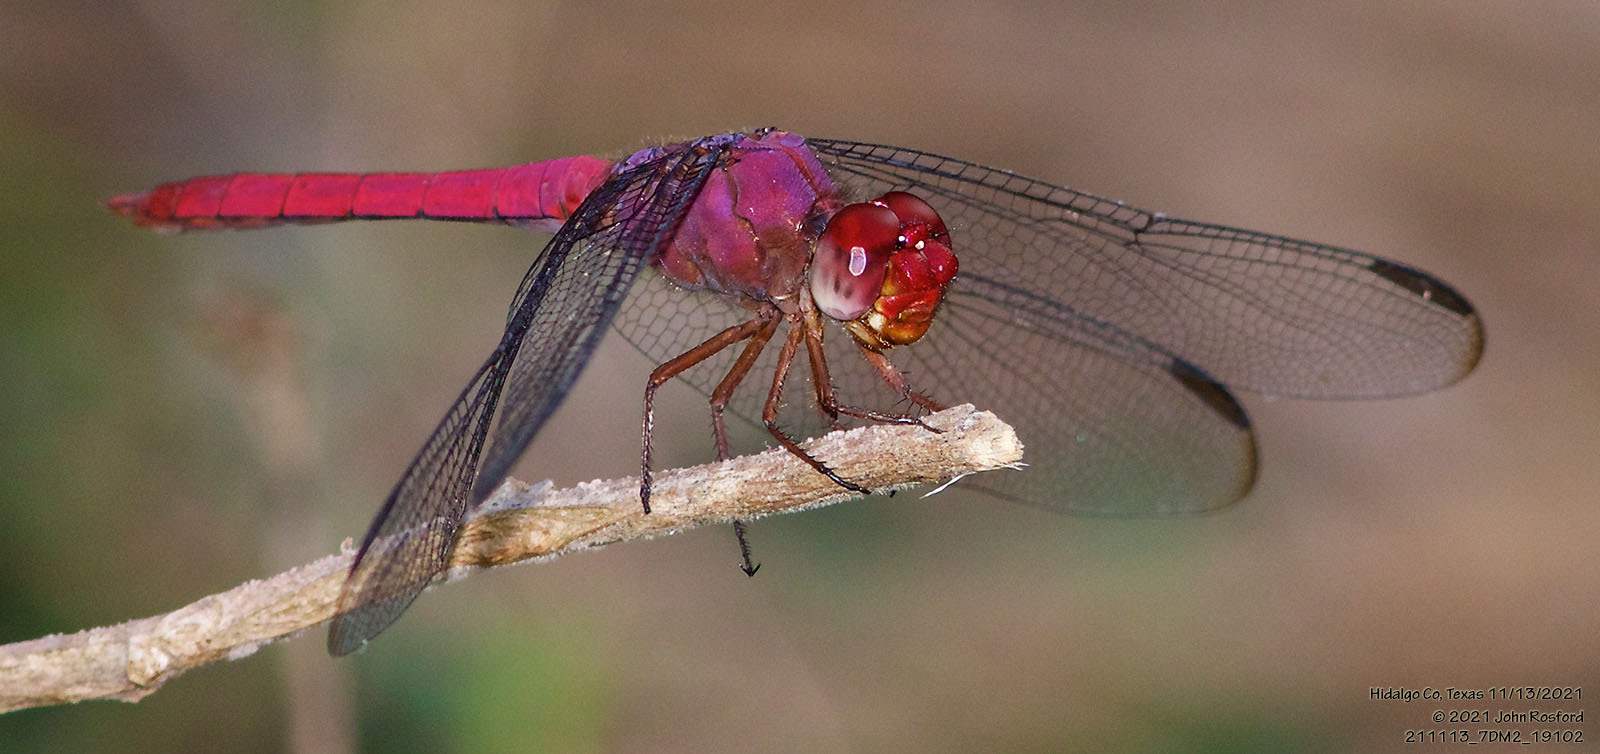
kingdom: Animalia
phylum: Arthropoda
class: Insecta
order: Odonata
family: Libellulidae
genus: Orthemis
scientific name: Orthemis discolor
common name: Carmine skimmer
